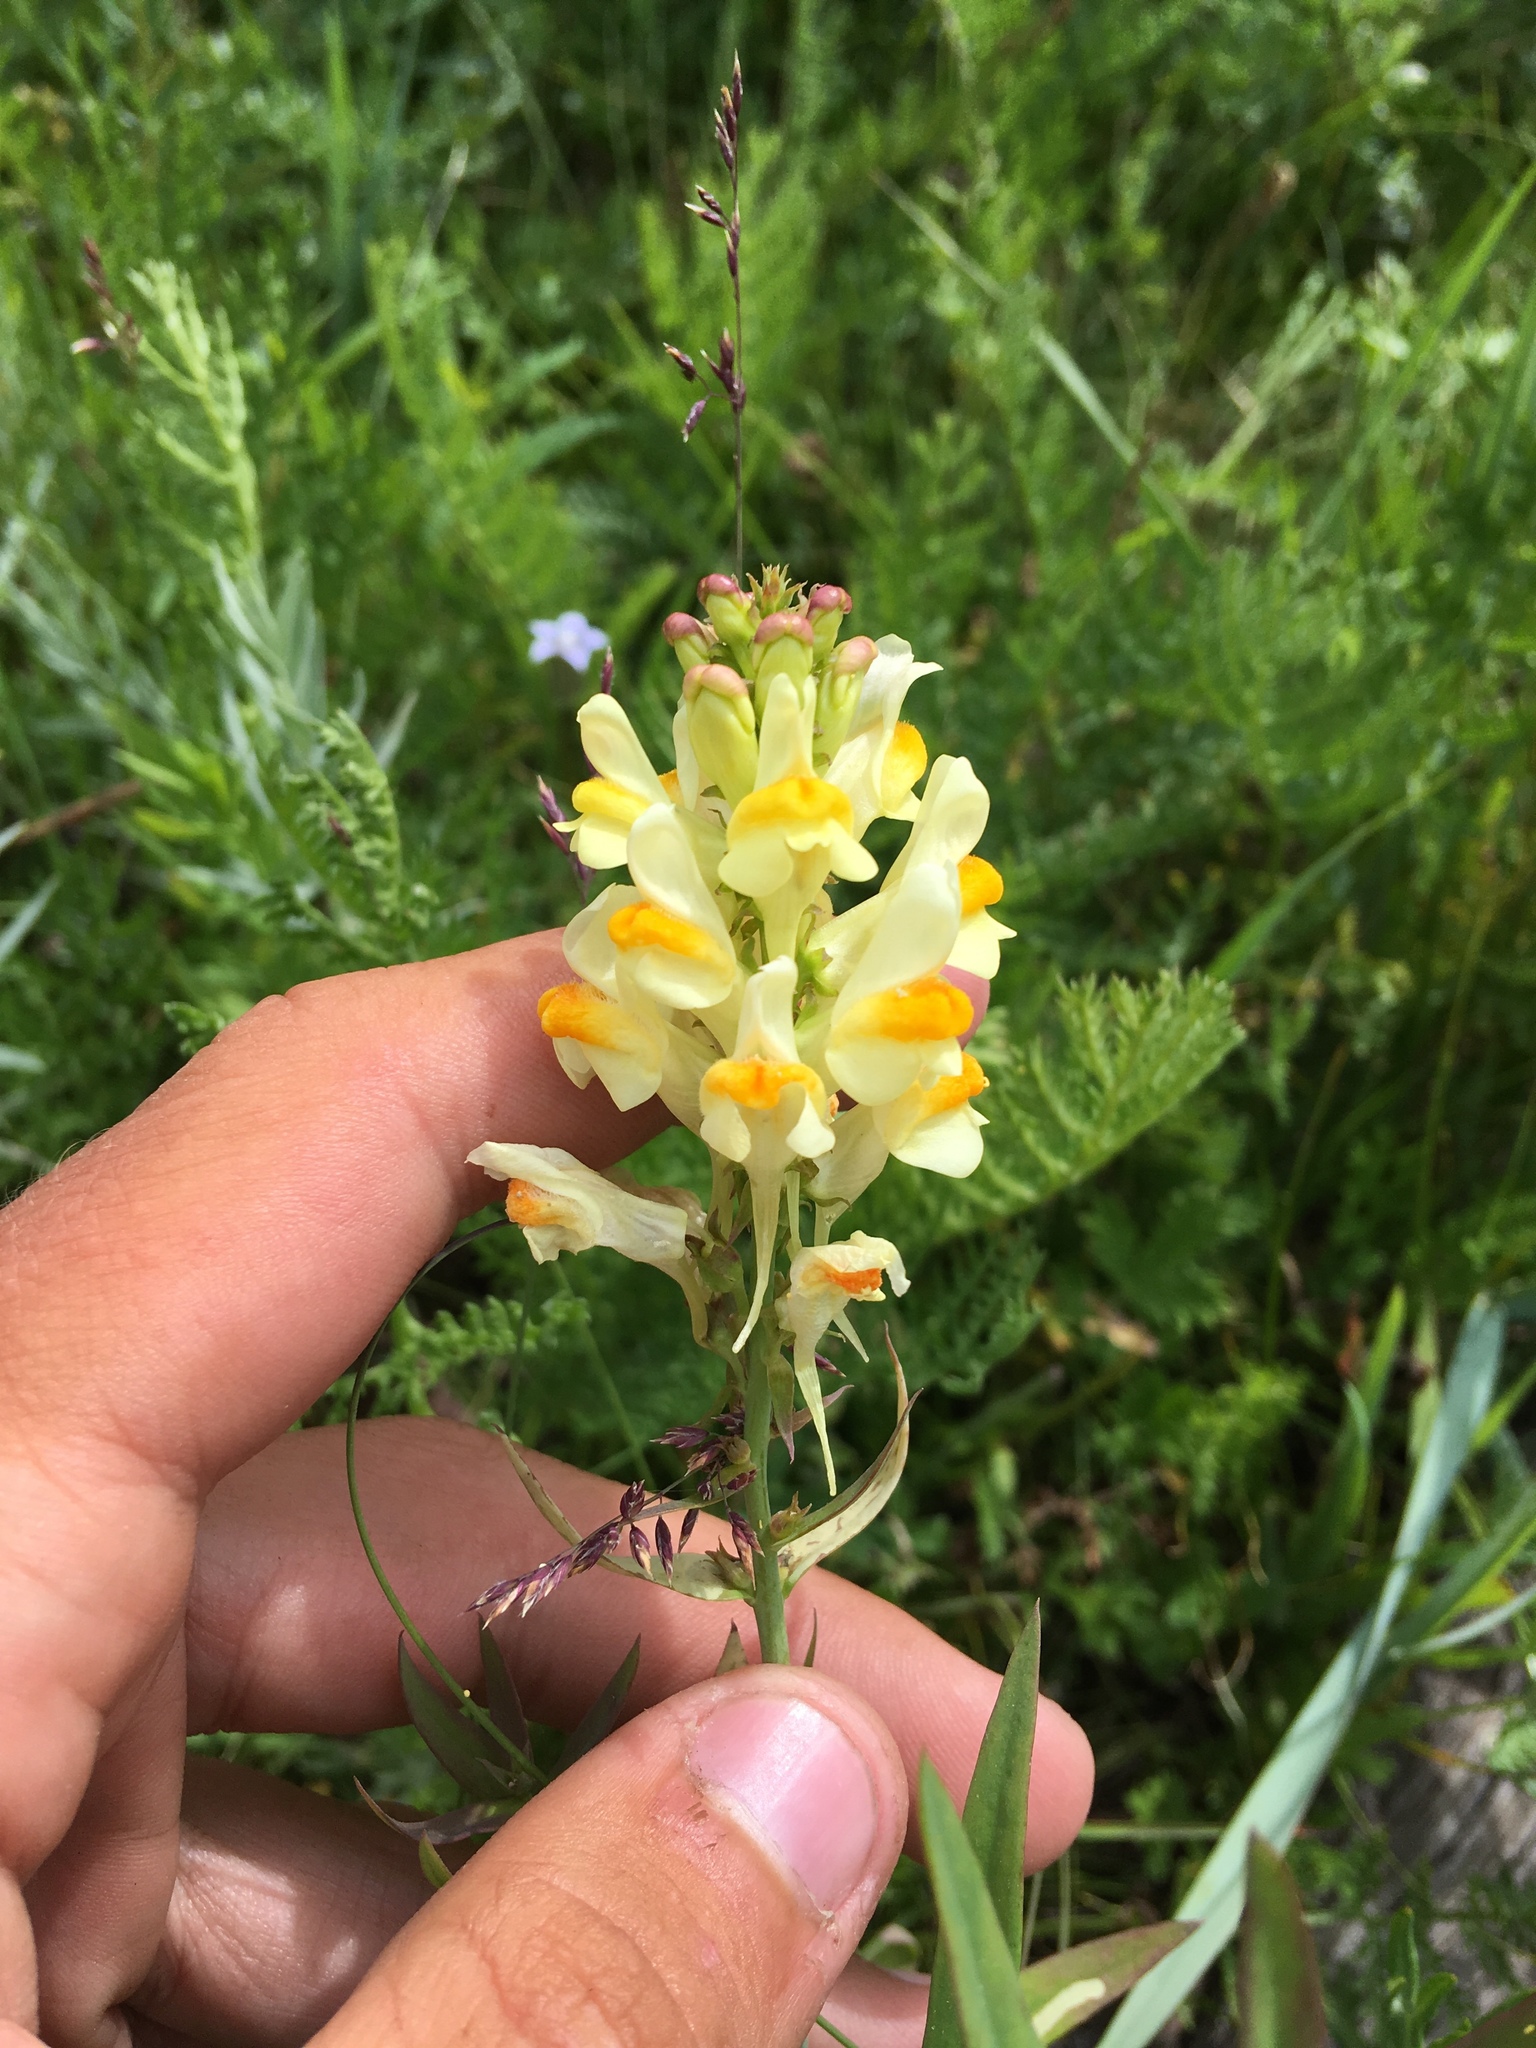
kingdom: Plantae
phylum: Tracheophyta
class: Magnoliopsida
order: Lamiales
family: Plantaginaceae
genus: Linaria
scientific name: Linaria vulgaris
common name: Butter and eggs
